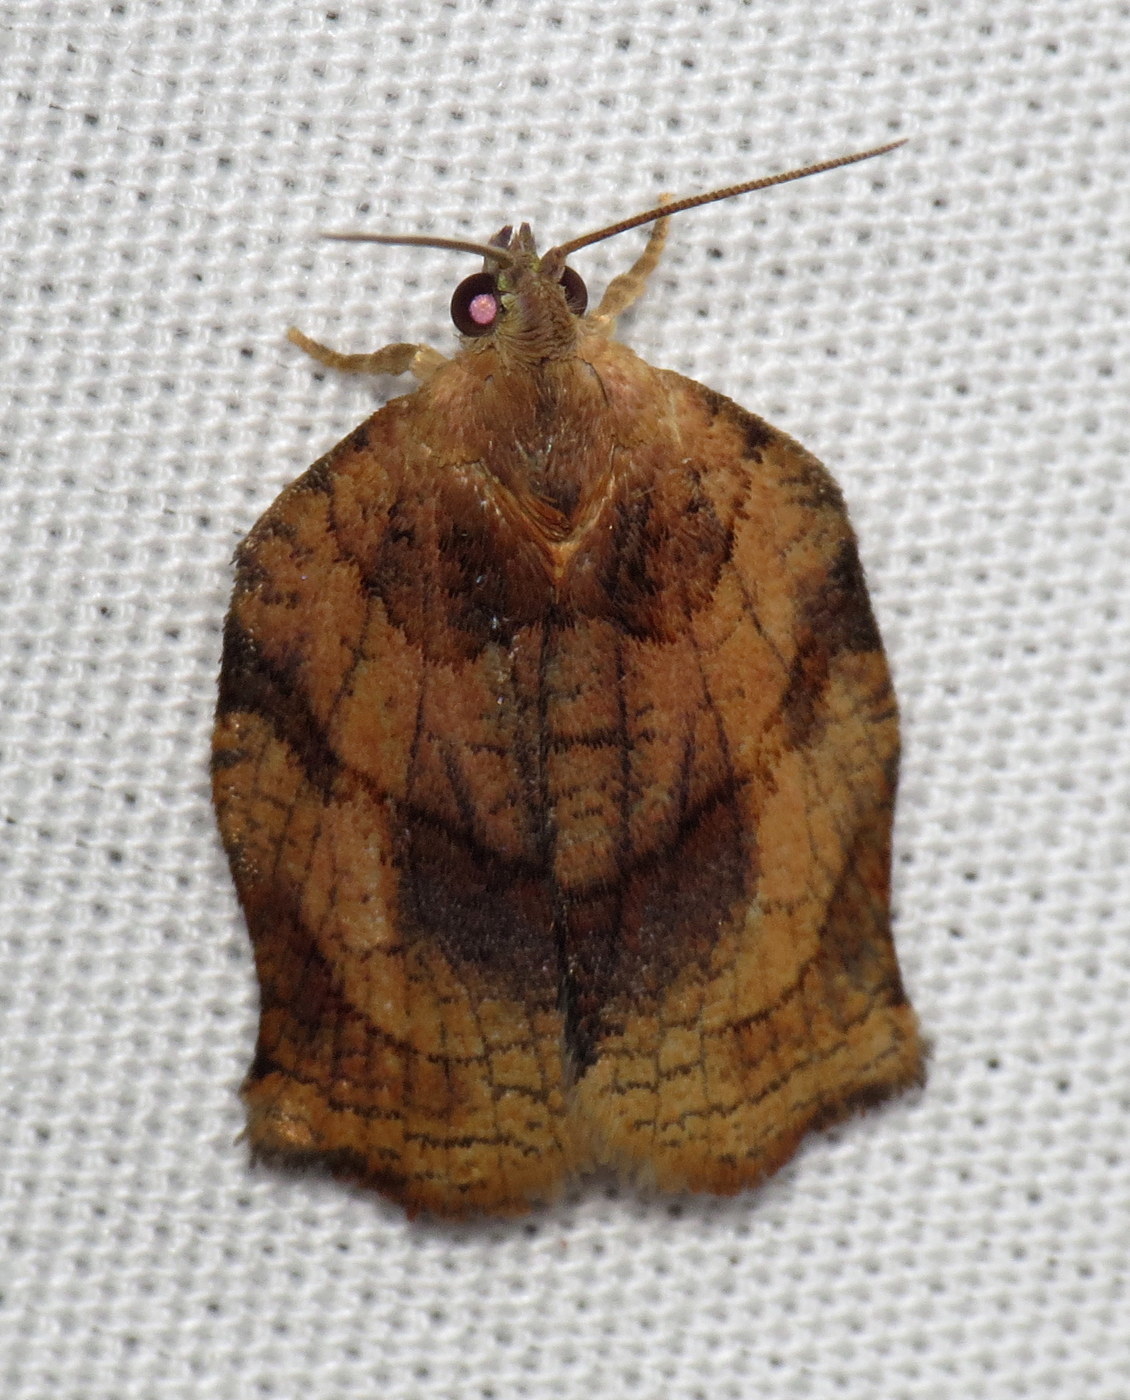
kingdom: Animalia
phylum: Arthropoda
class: Insecta
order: Lepidoptera
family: Tortricidae
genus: Archips
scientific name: Archips purpurana
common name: Omnivorous leafroller
